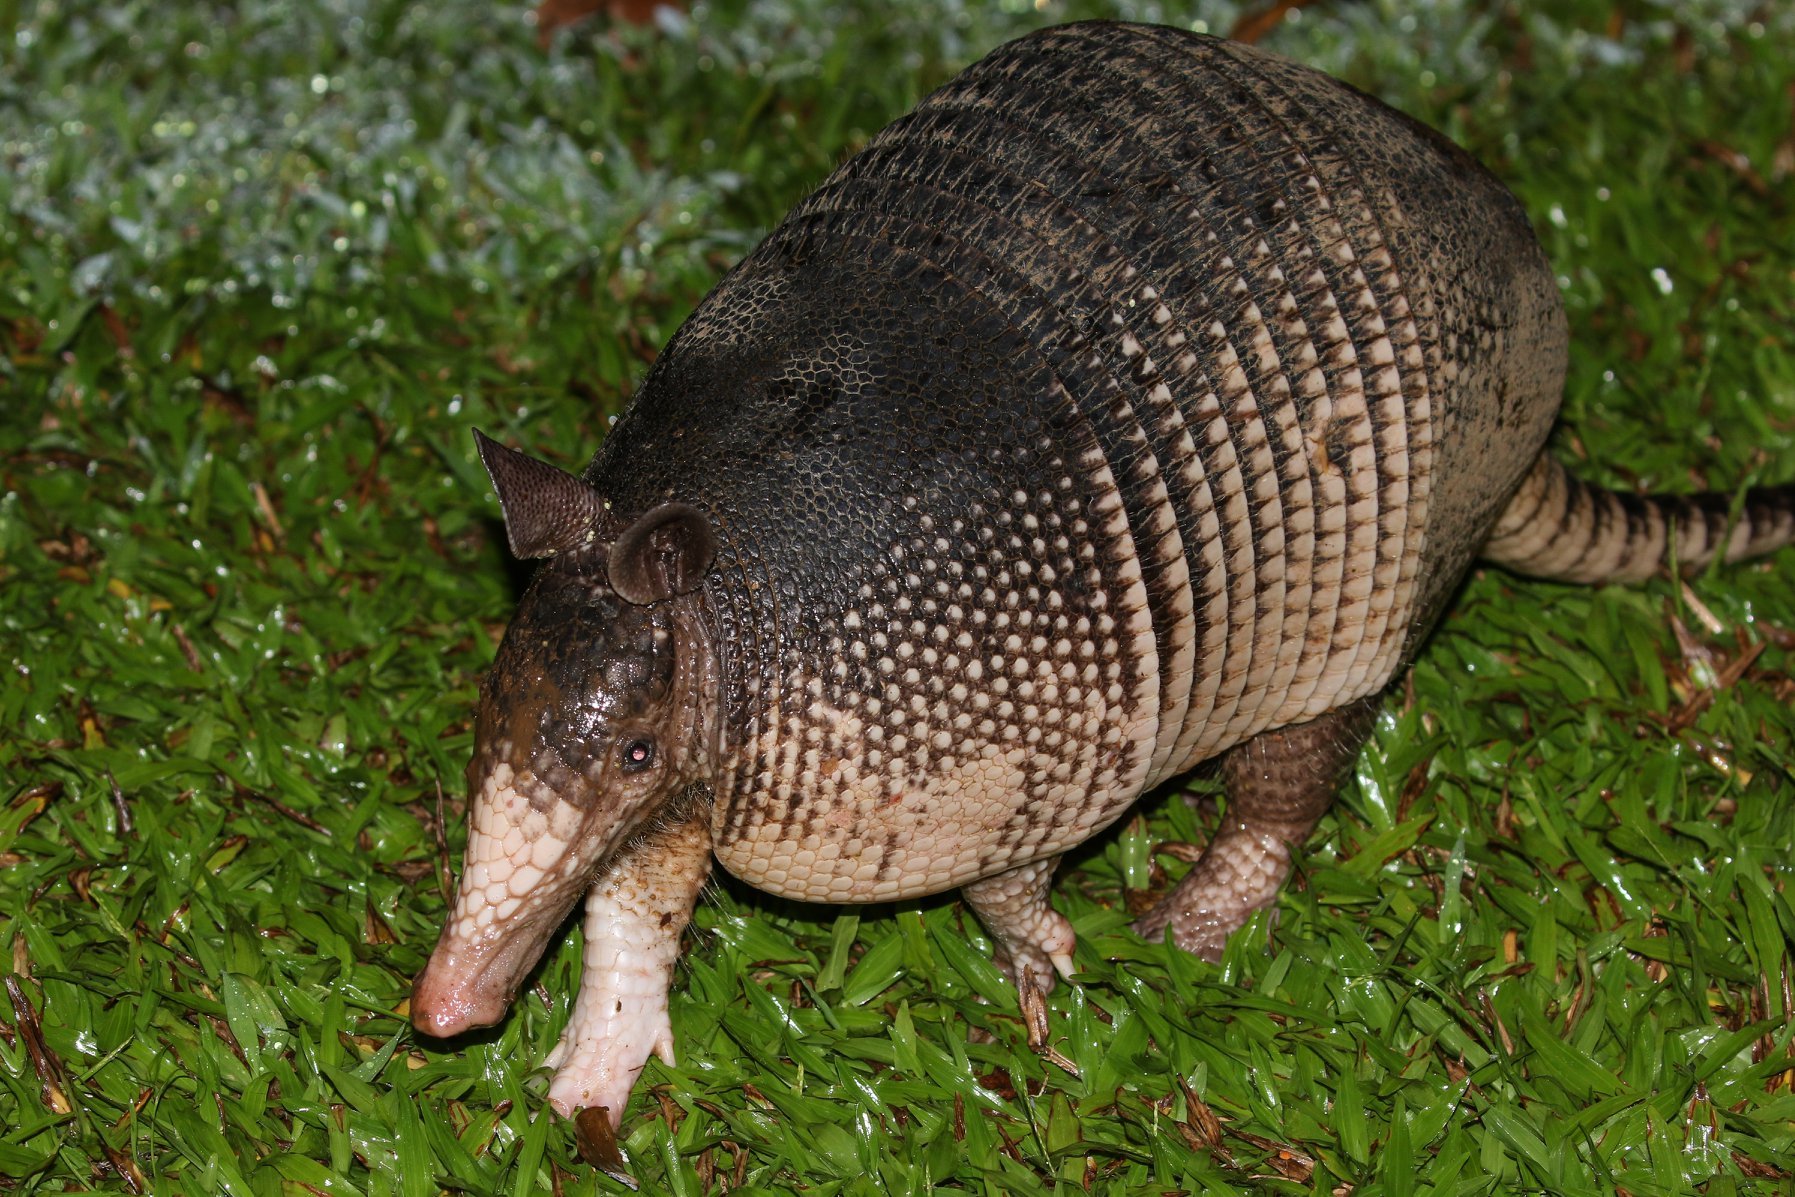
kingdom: Animalia
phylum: Chordata
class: Mammalia
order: Cingulata
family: Dasypodidae
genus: Dasypus
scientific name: Dasypus novemcinctus
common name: Nine-banded armadillo
